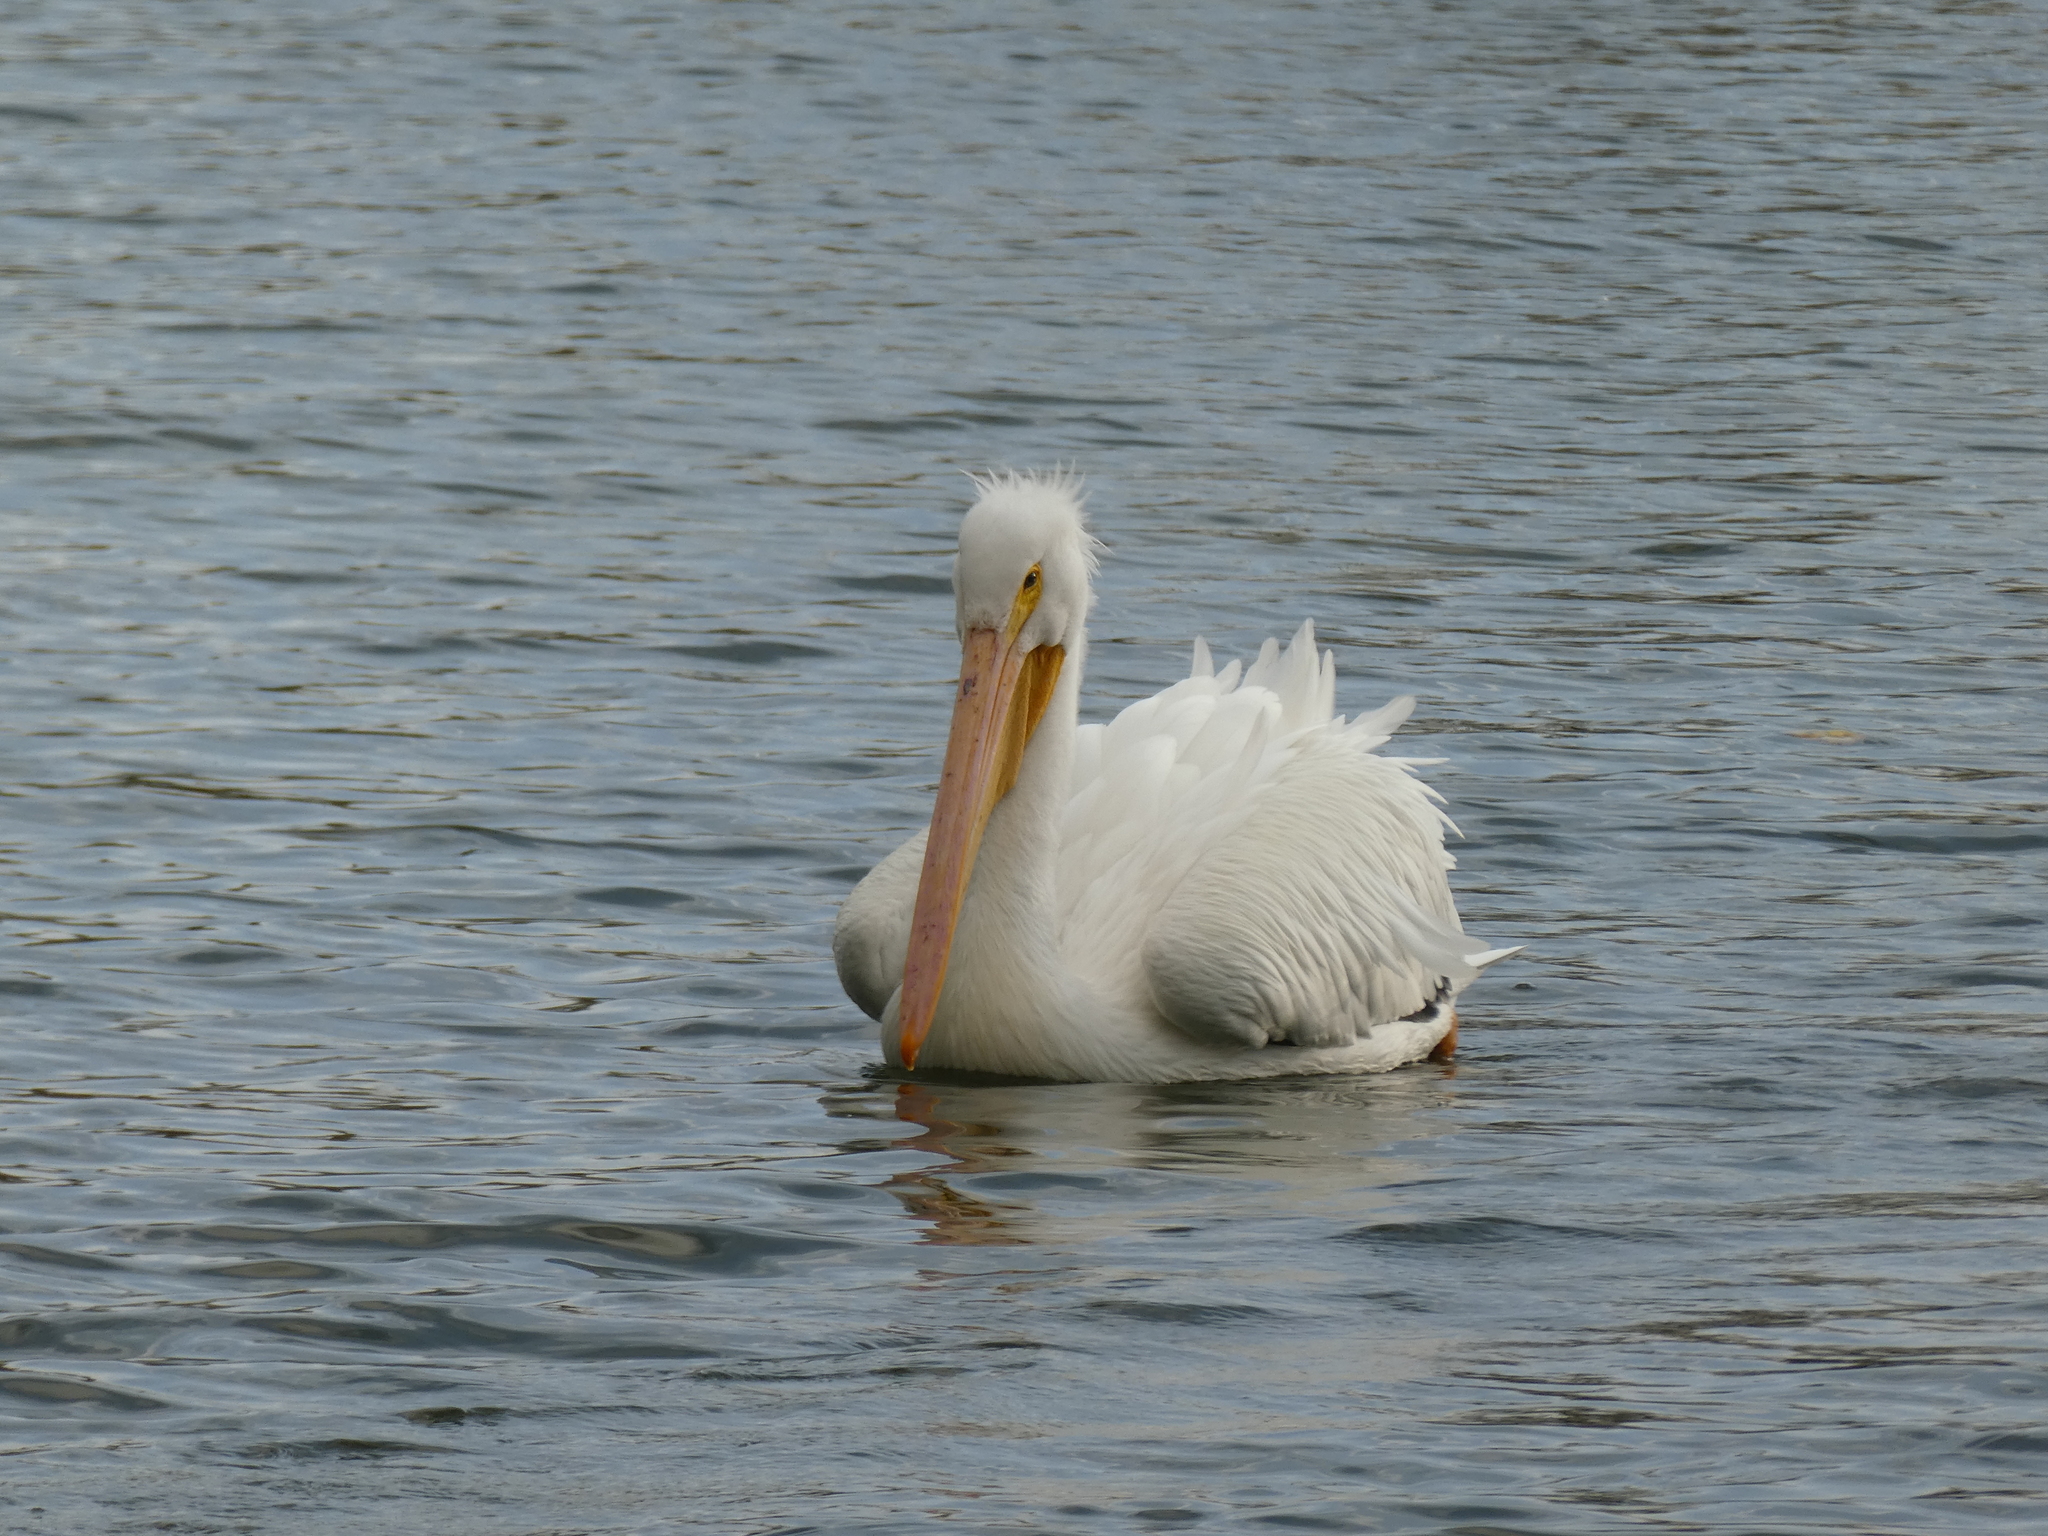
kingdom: Animalia
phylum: Chordata
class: Aves
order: Pelecaniformes
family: Pelecanidae
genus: Pelecanus
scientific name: Pelecanus erythrorhynchos
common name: American white pelican
